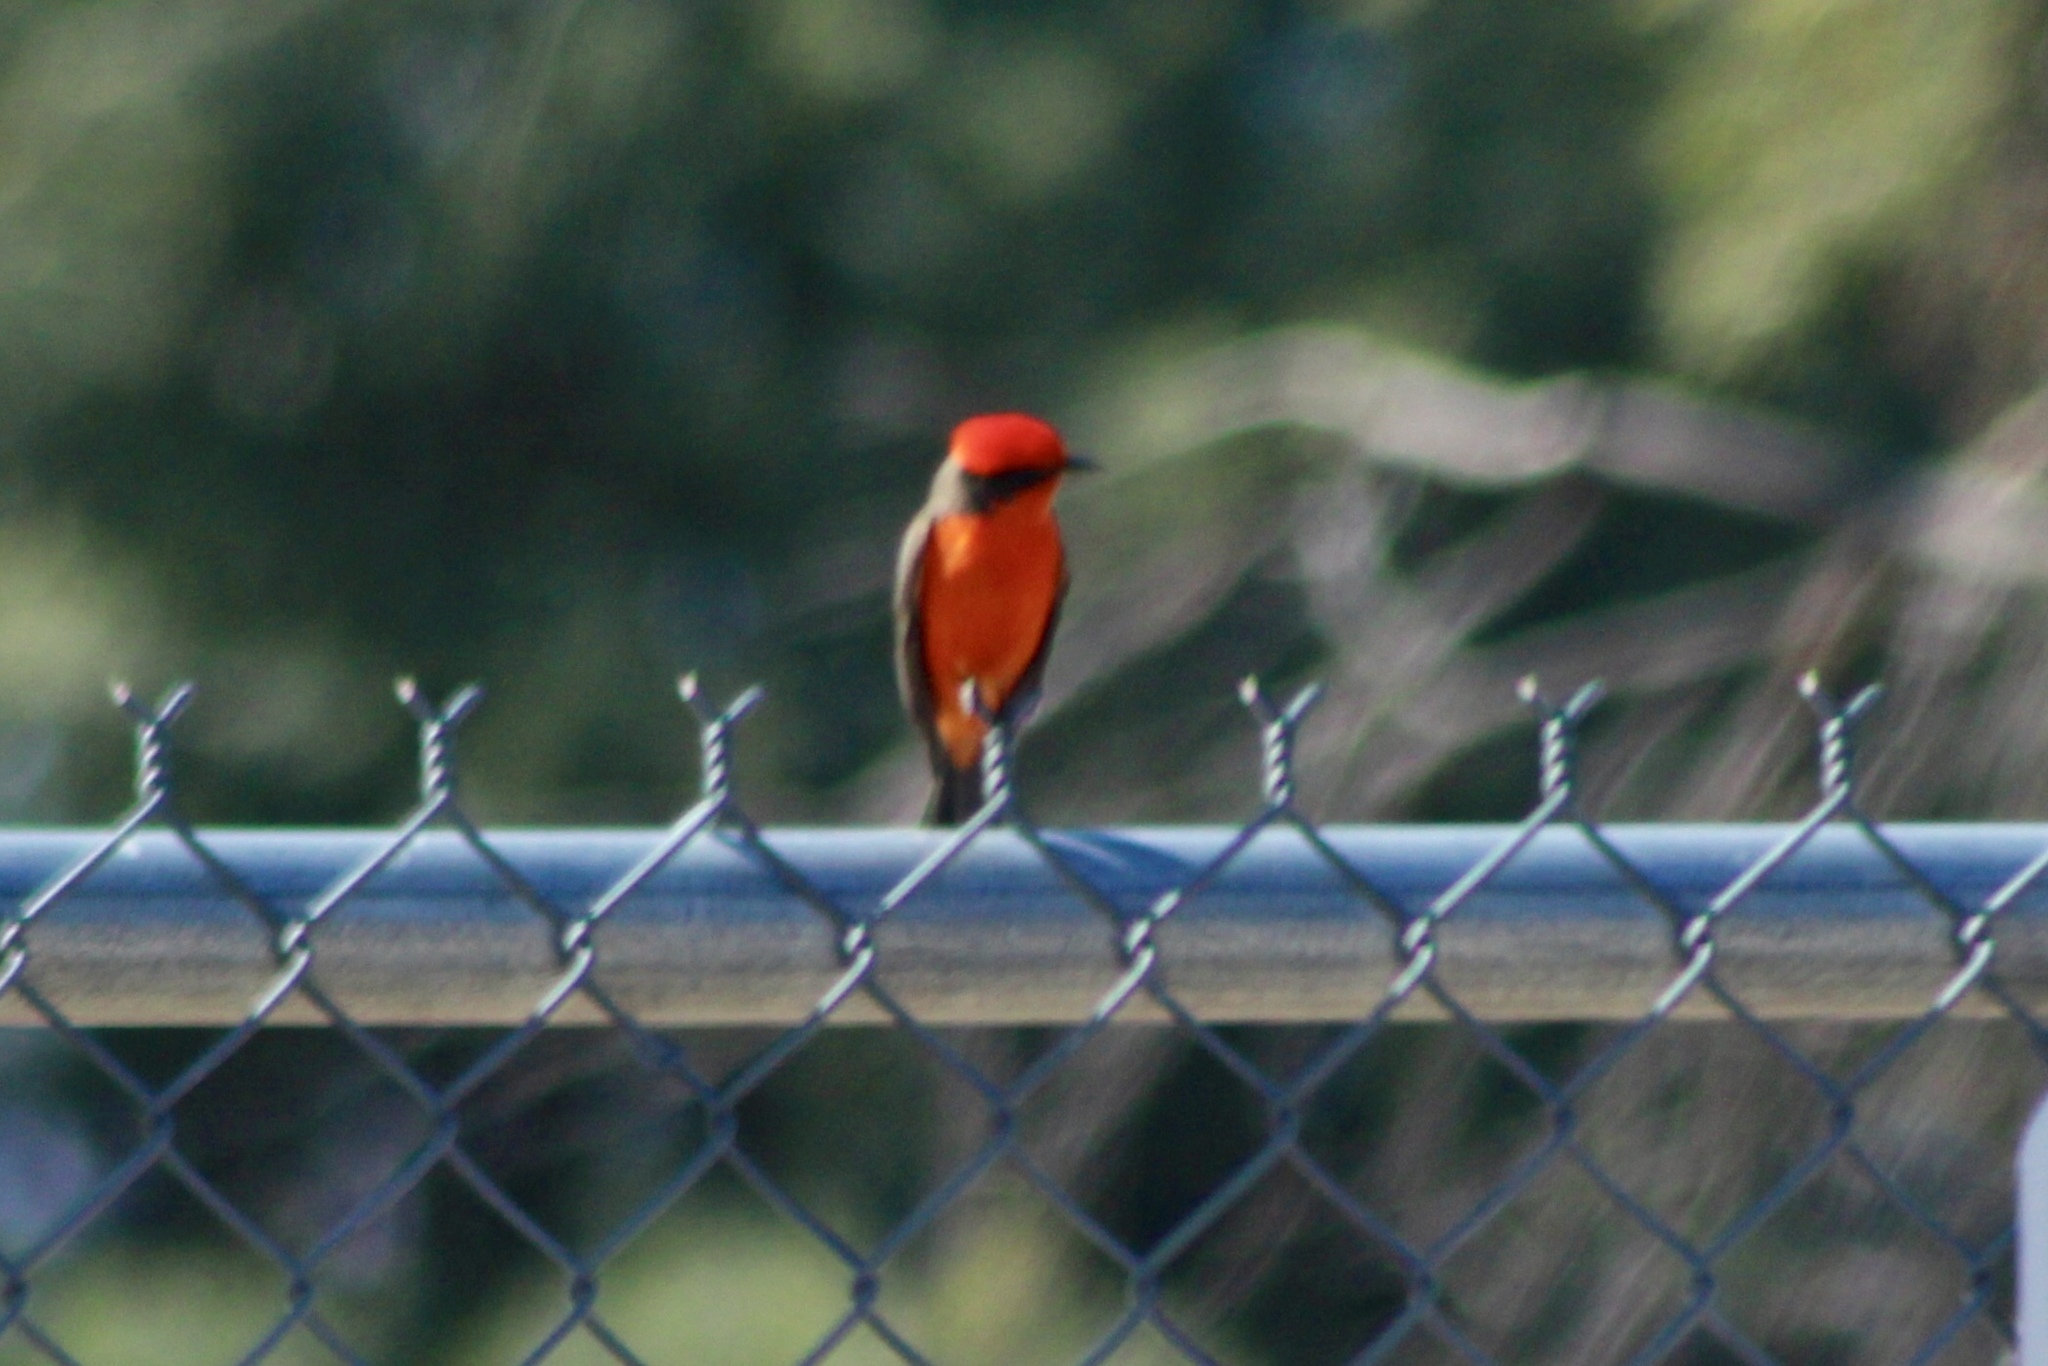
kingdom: Animalia
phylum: Chordata
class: Aves
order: Passeriformes
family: Tyrannidae
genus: Pyrocephalus
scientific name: Pyrocephalus rubinus
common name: Vermilion flycatcher
